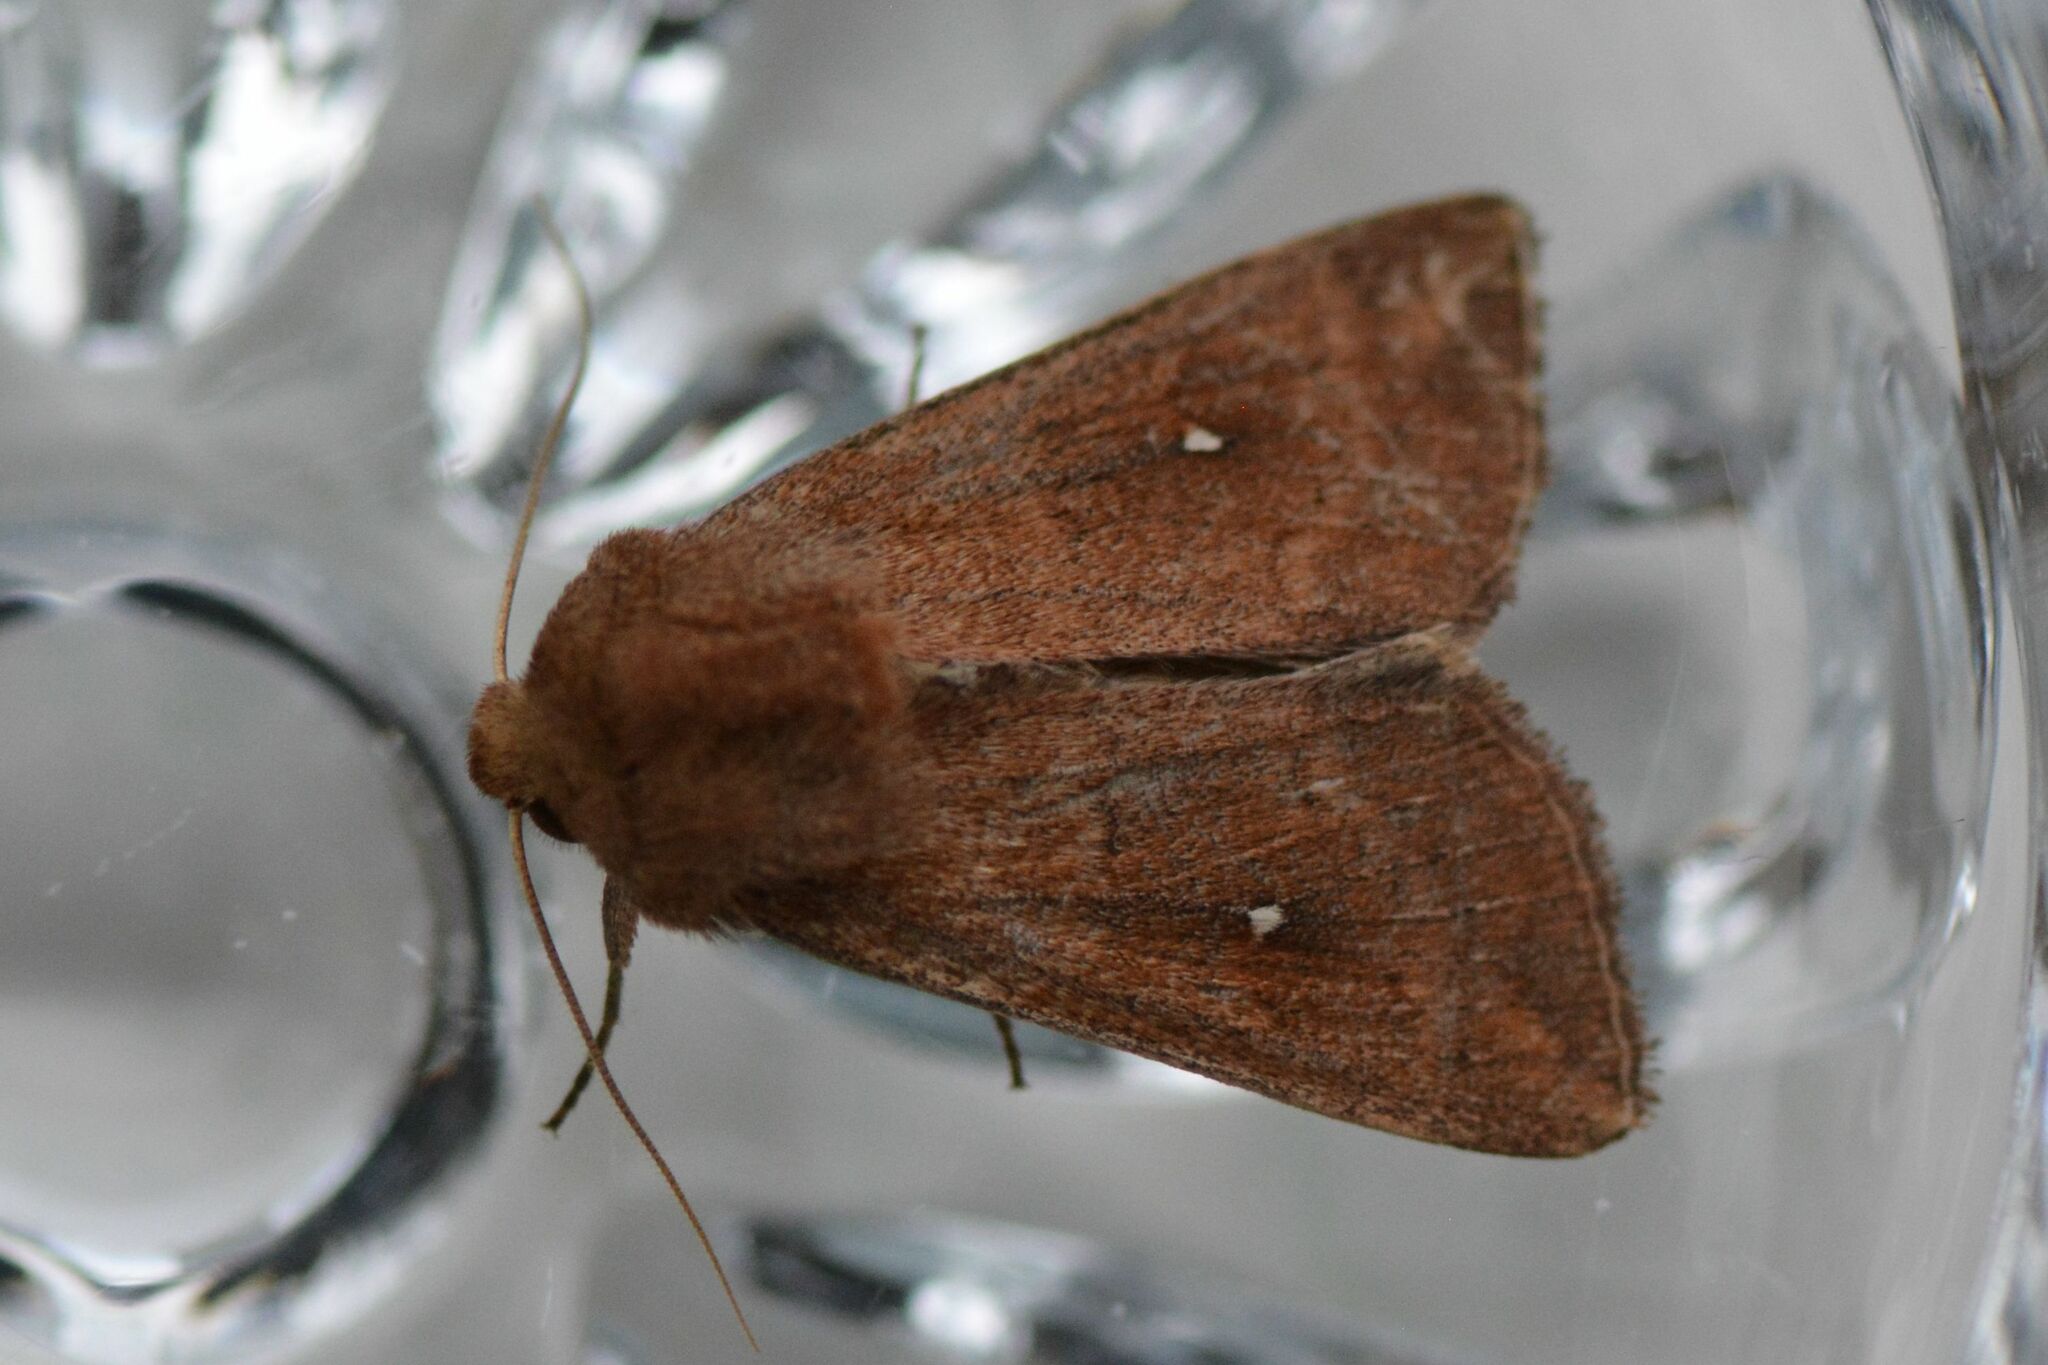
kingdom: Animalia
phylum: Arthropoda
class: Insecta
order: Lepidoptera
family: Noctuidae
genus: Mythimna
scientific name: Mythimna albipuncta
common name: White-point
